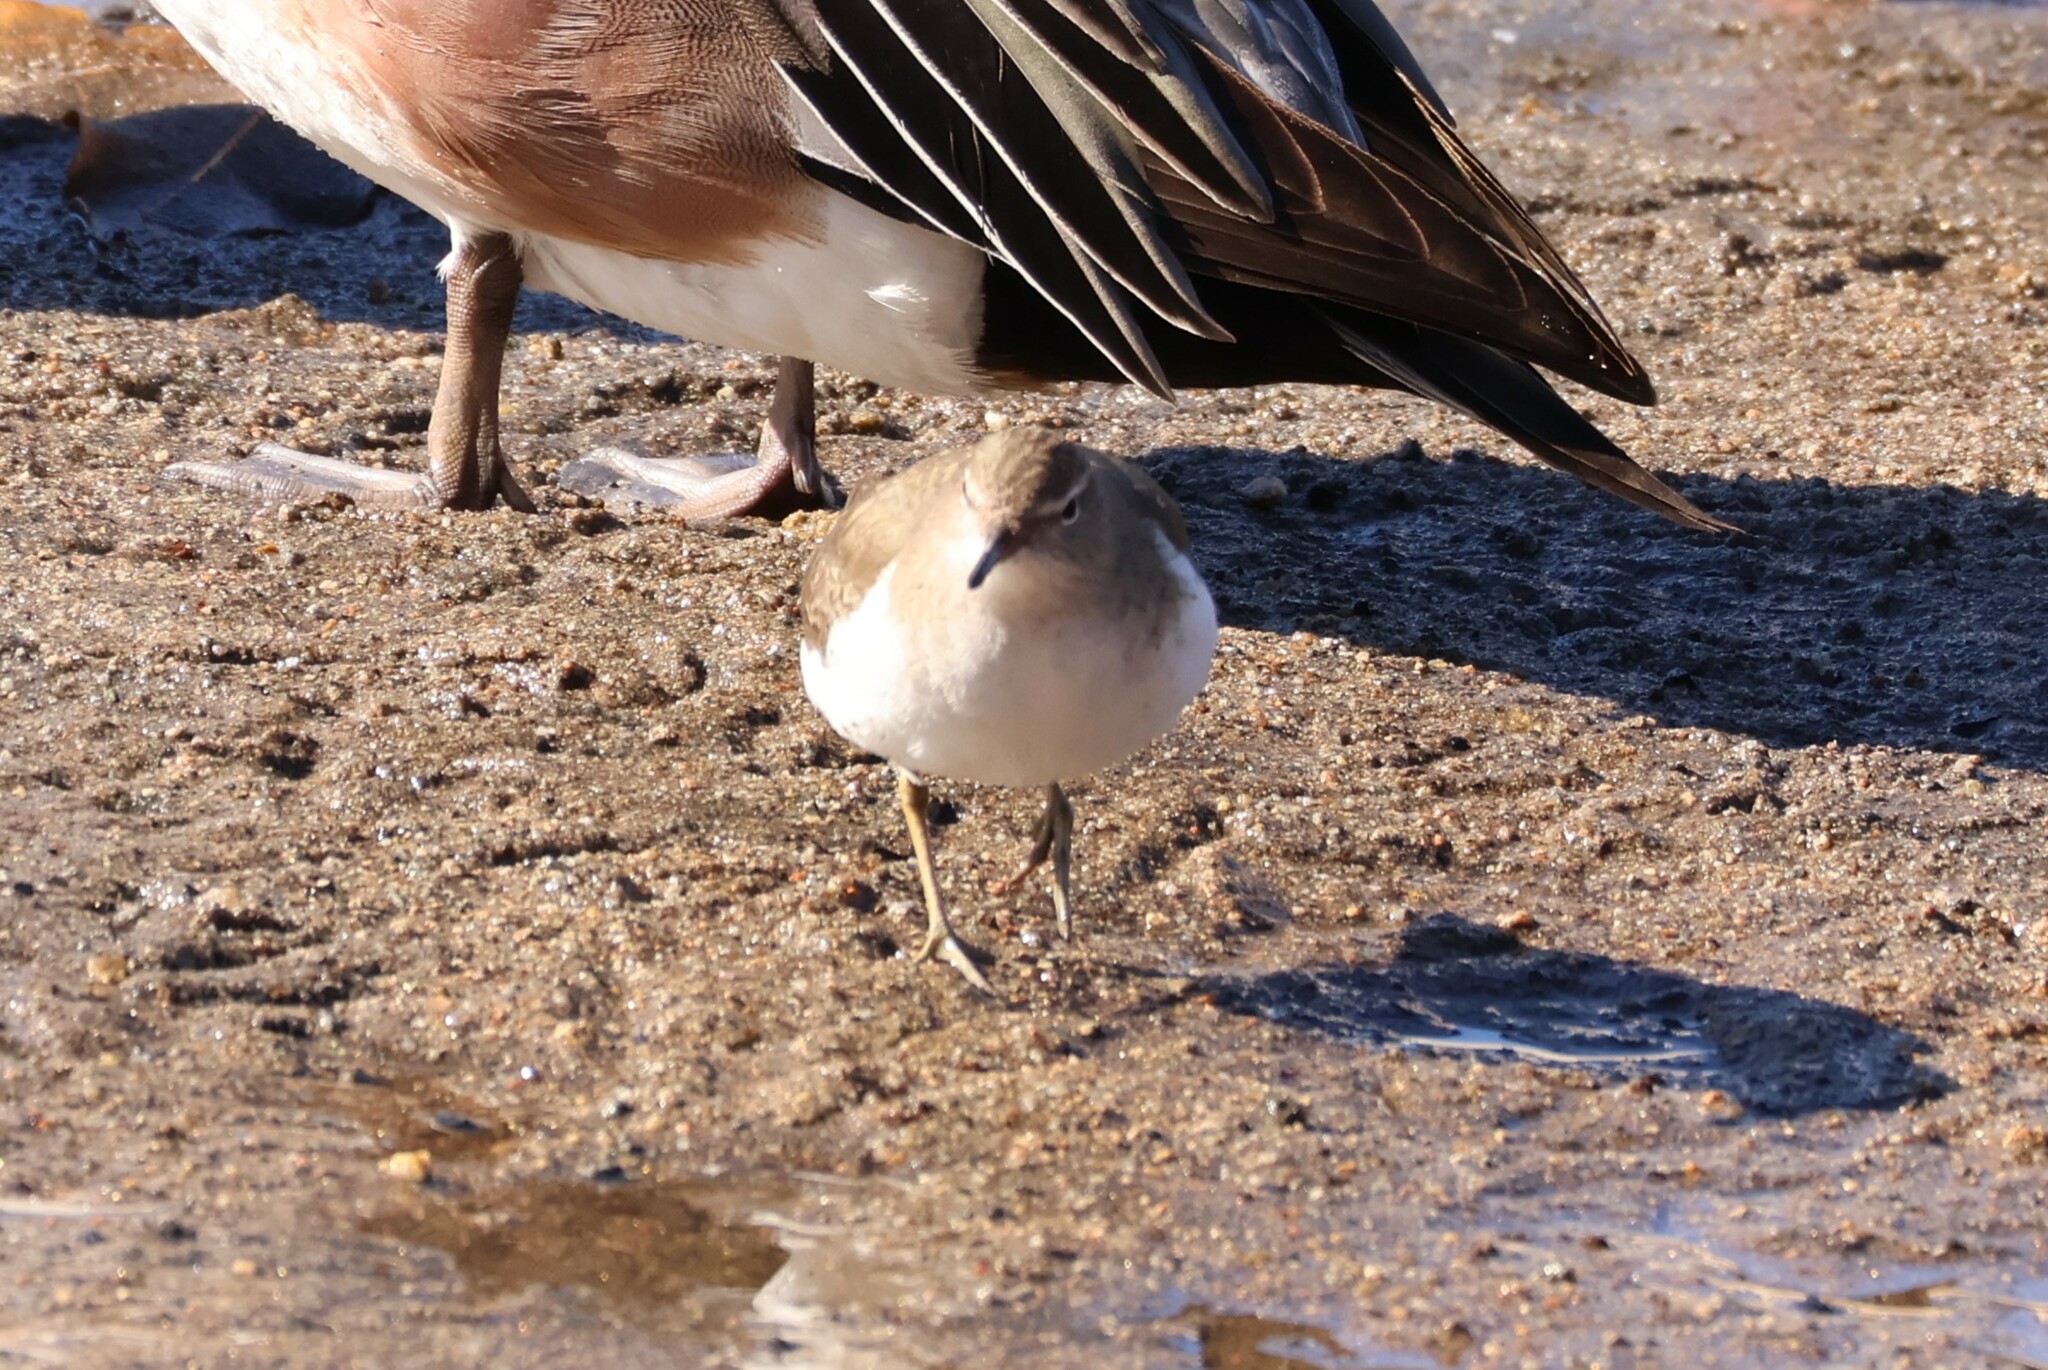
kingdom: Animalia
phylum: Chordata
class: Aves
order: Charadriiformes
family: Scolopacidae
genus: Actitis
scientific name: Actitis macularius
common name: Spotted sandpiper
